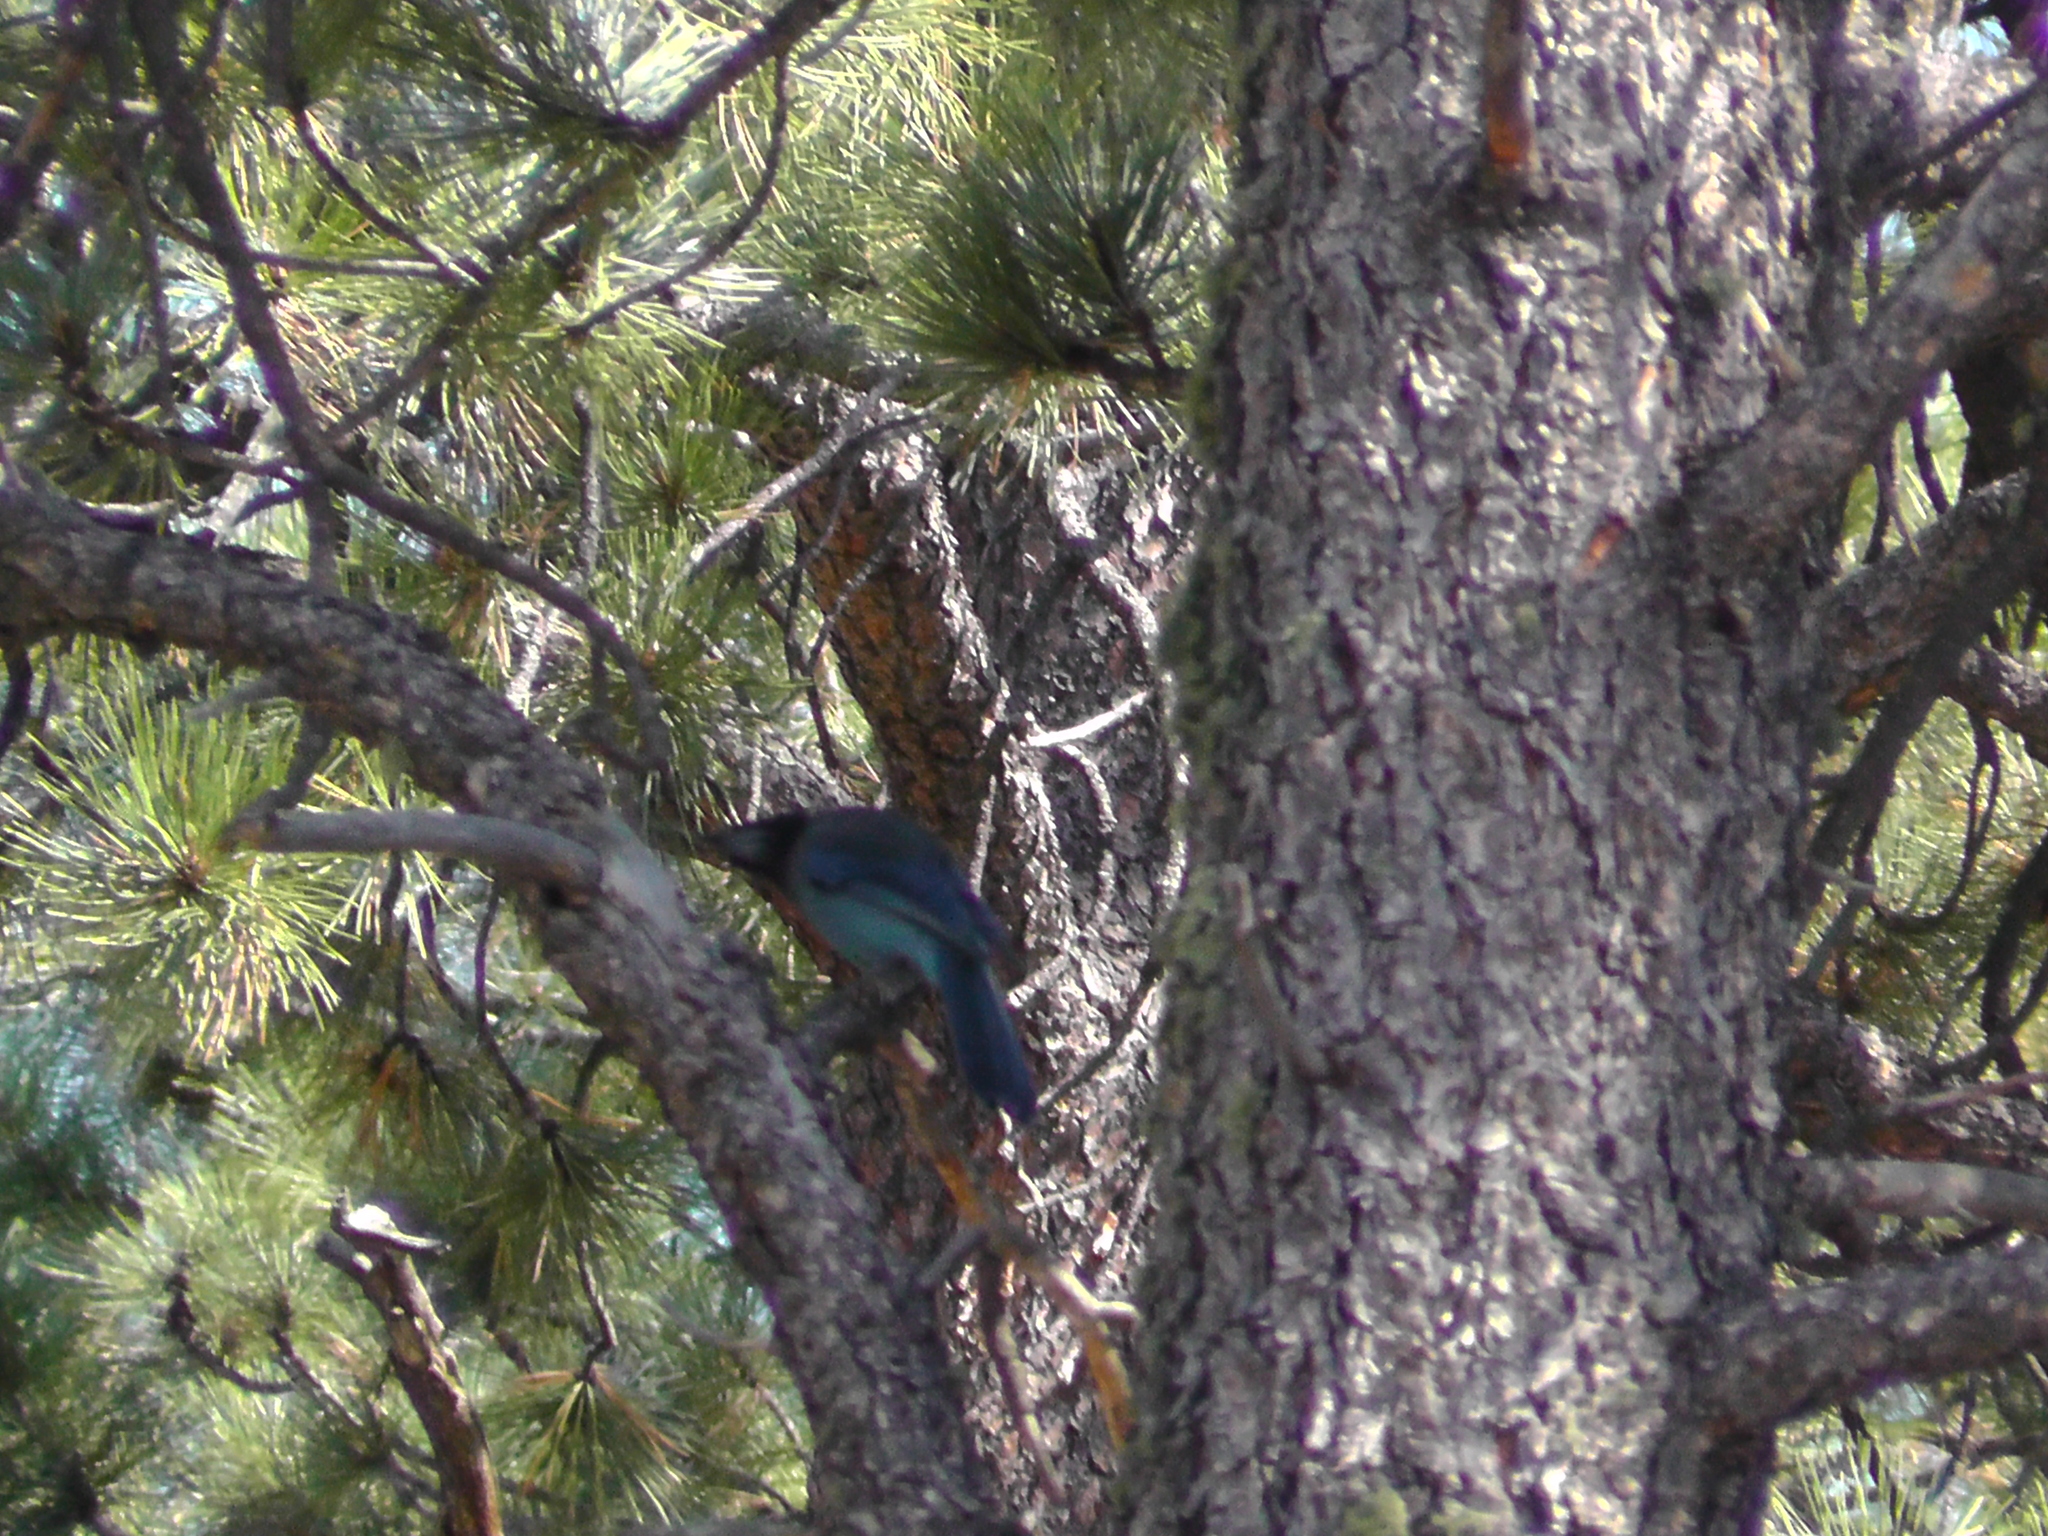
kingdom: Animalia
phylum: Chordata
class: Aves
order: Passeriformes
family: Corvidae
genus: Cyanocitta
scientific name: Cyanocitta stelleri
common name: Steller's jay
